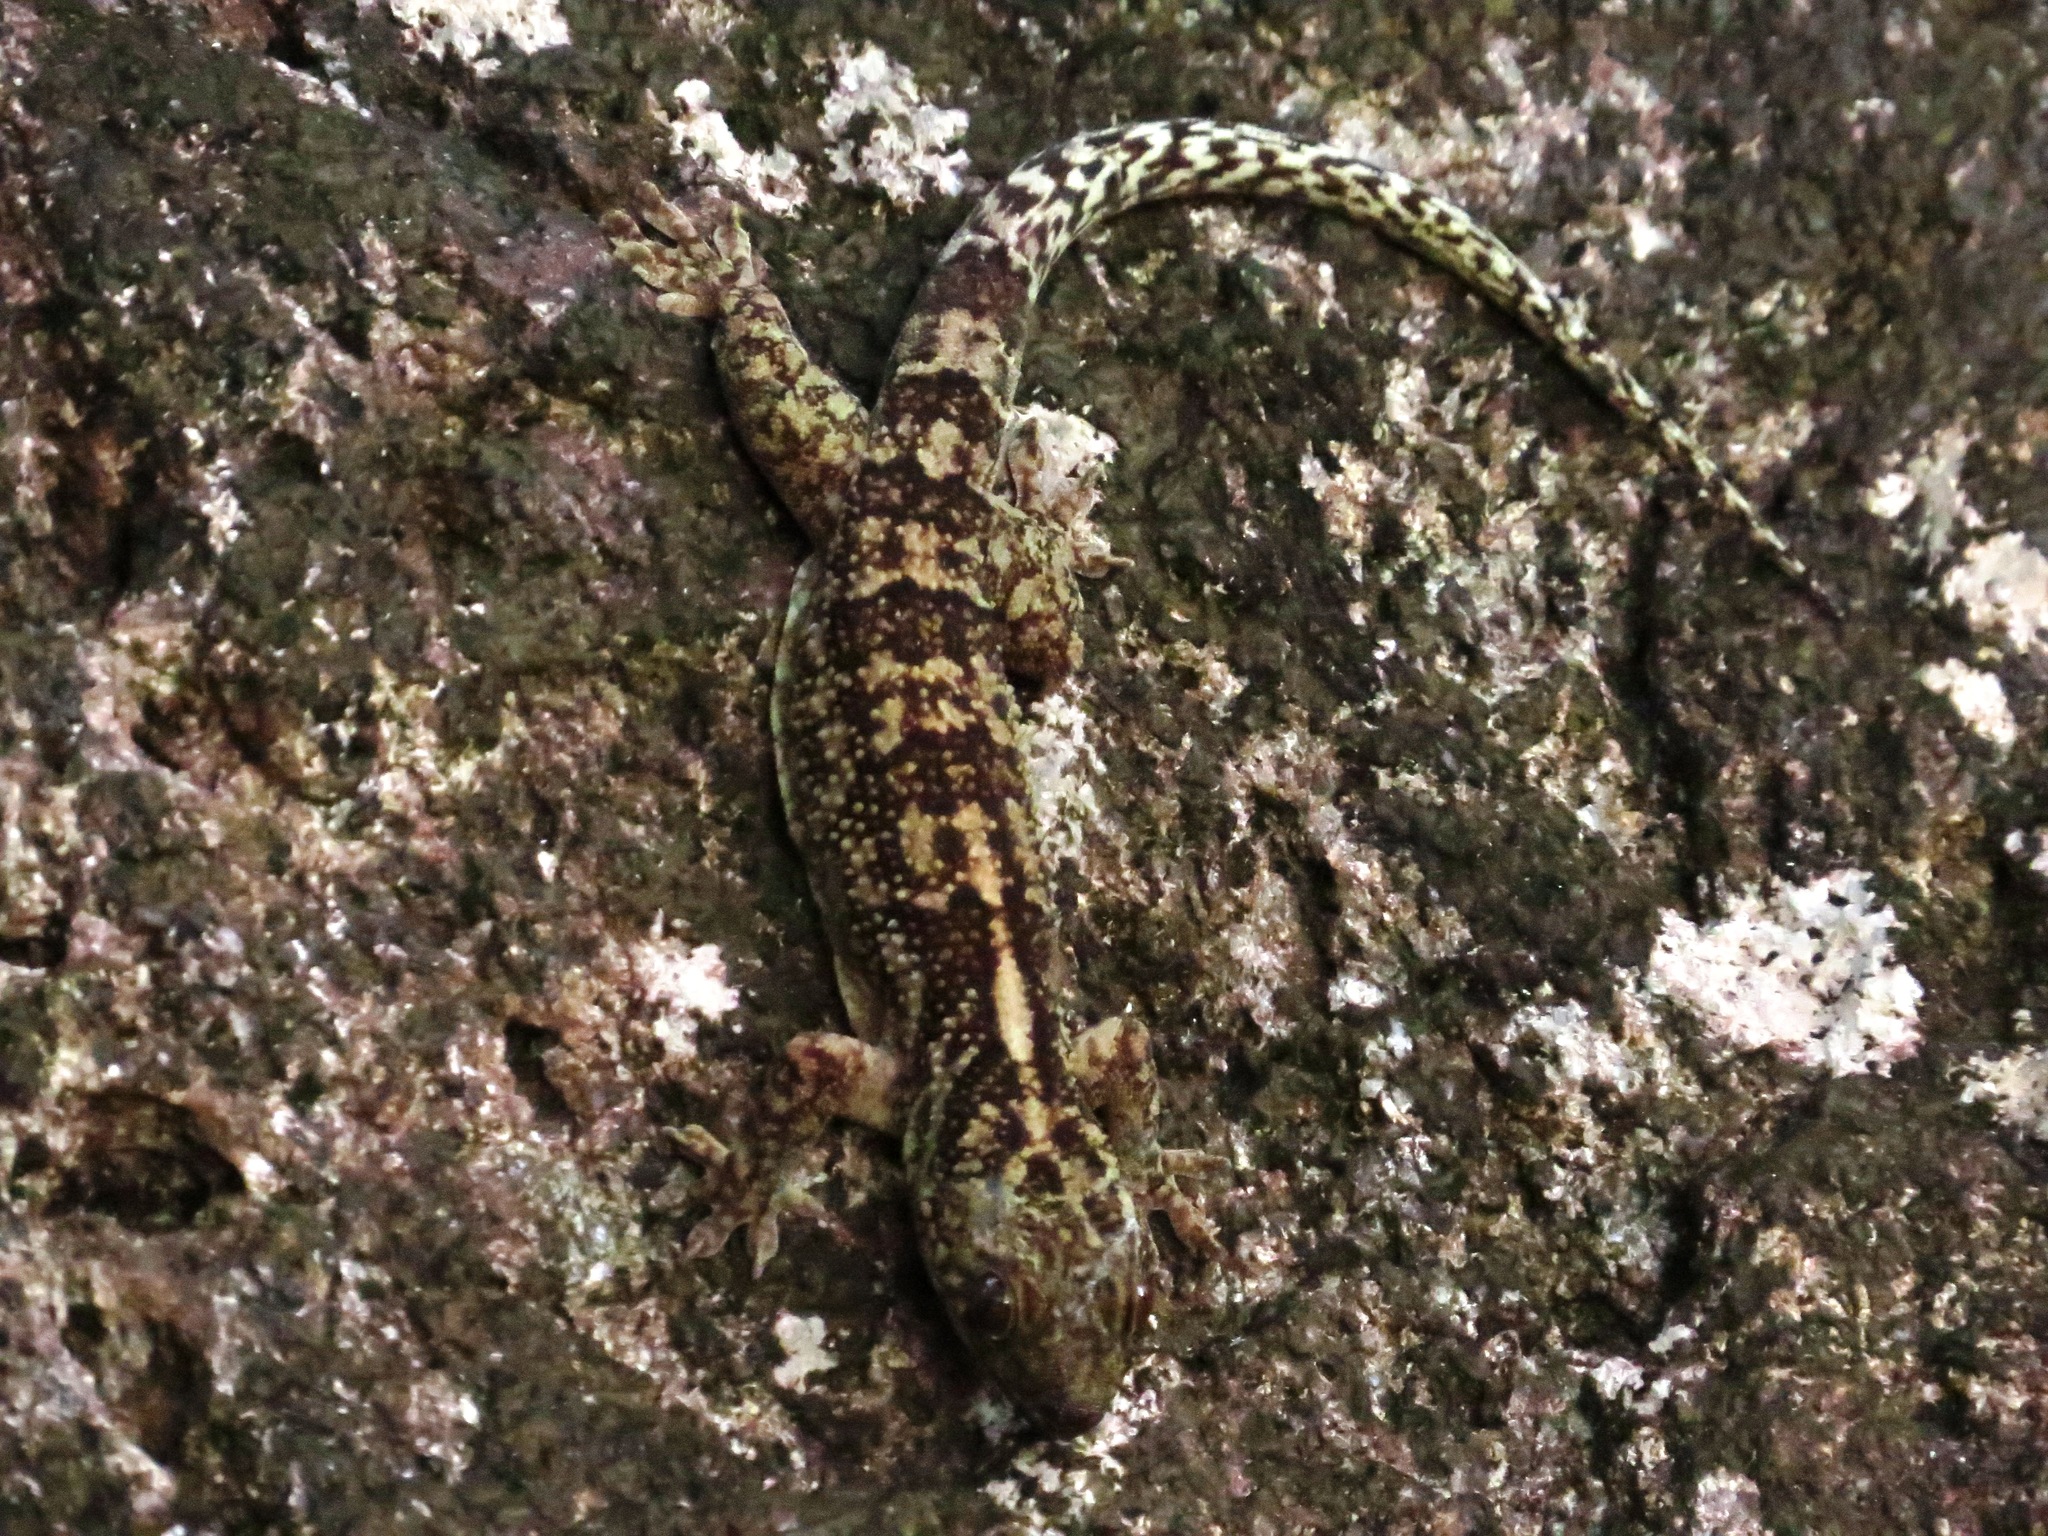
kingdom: Animalia
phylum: Chordata
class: Squamata
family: Gekkonidae
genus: Blaesodactylus
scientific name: Blaesodactylus antongilensis
